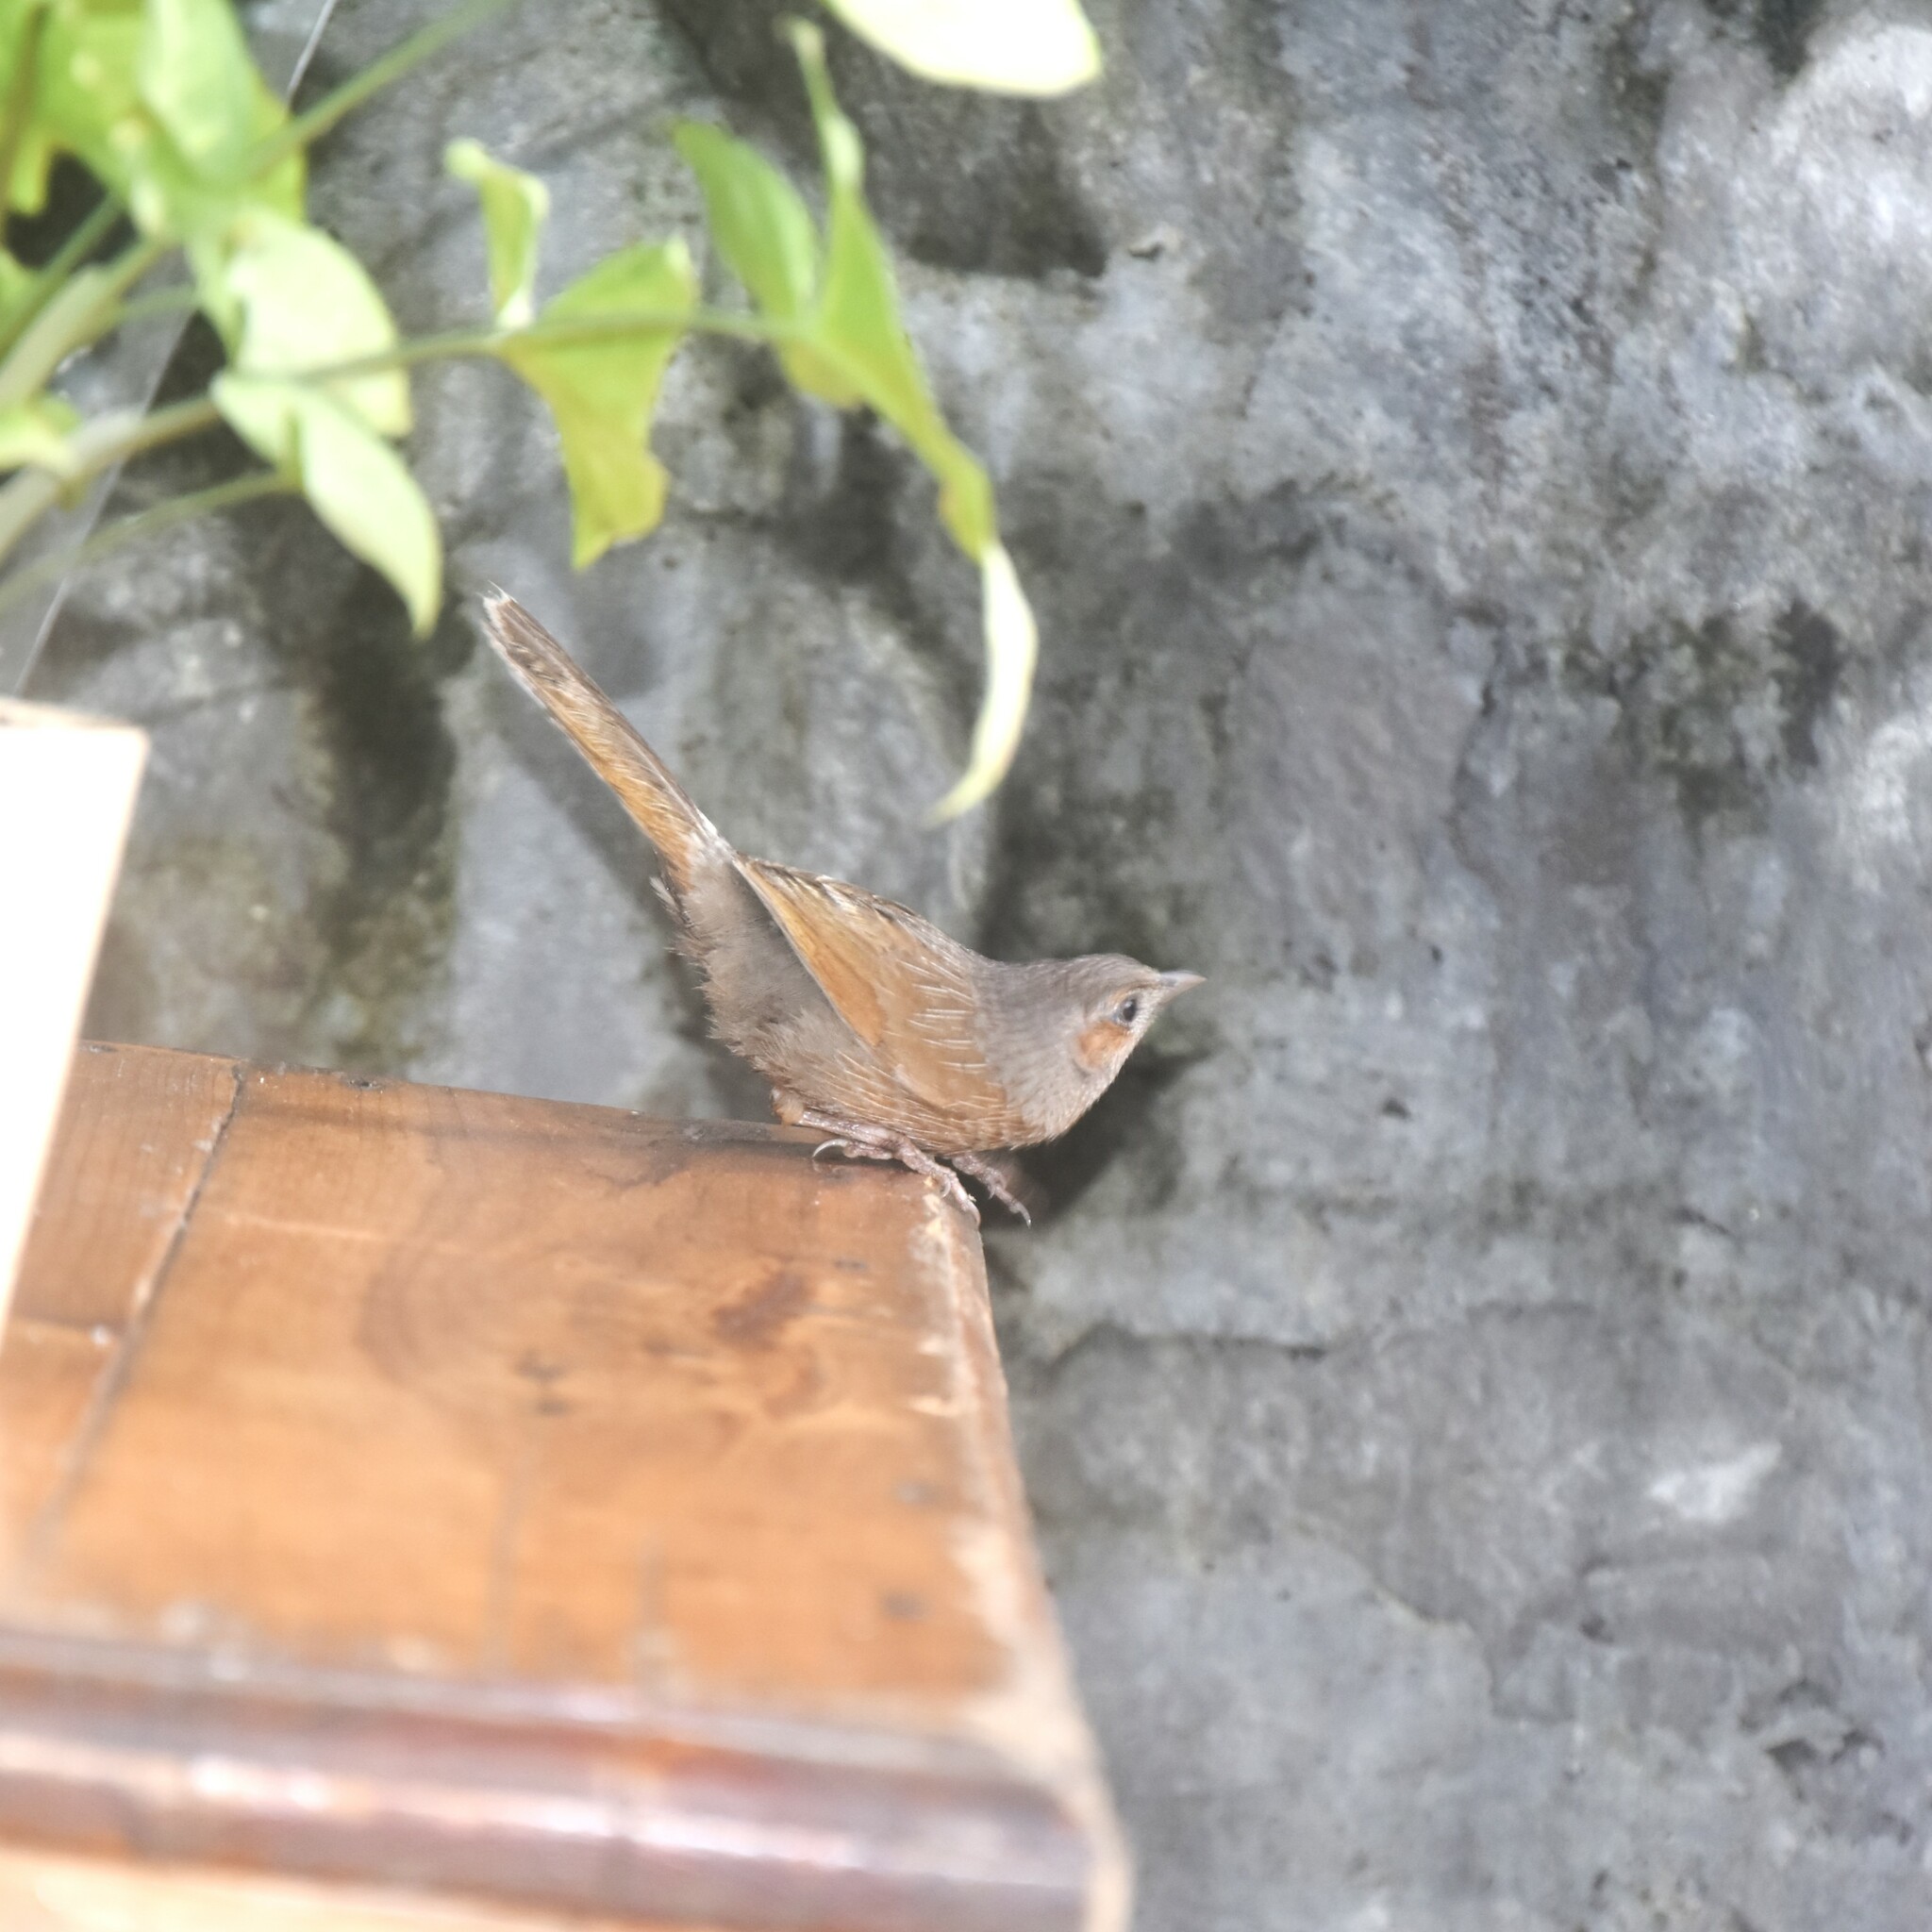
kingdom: Animalia
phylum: Chordata
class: Aves
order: Passeriformes
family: Leiothrichidae
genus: Trochalopteron
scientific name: Trochalopteron lineatum
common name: Streaked laughingthrush
